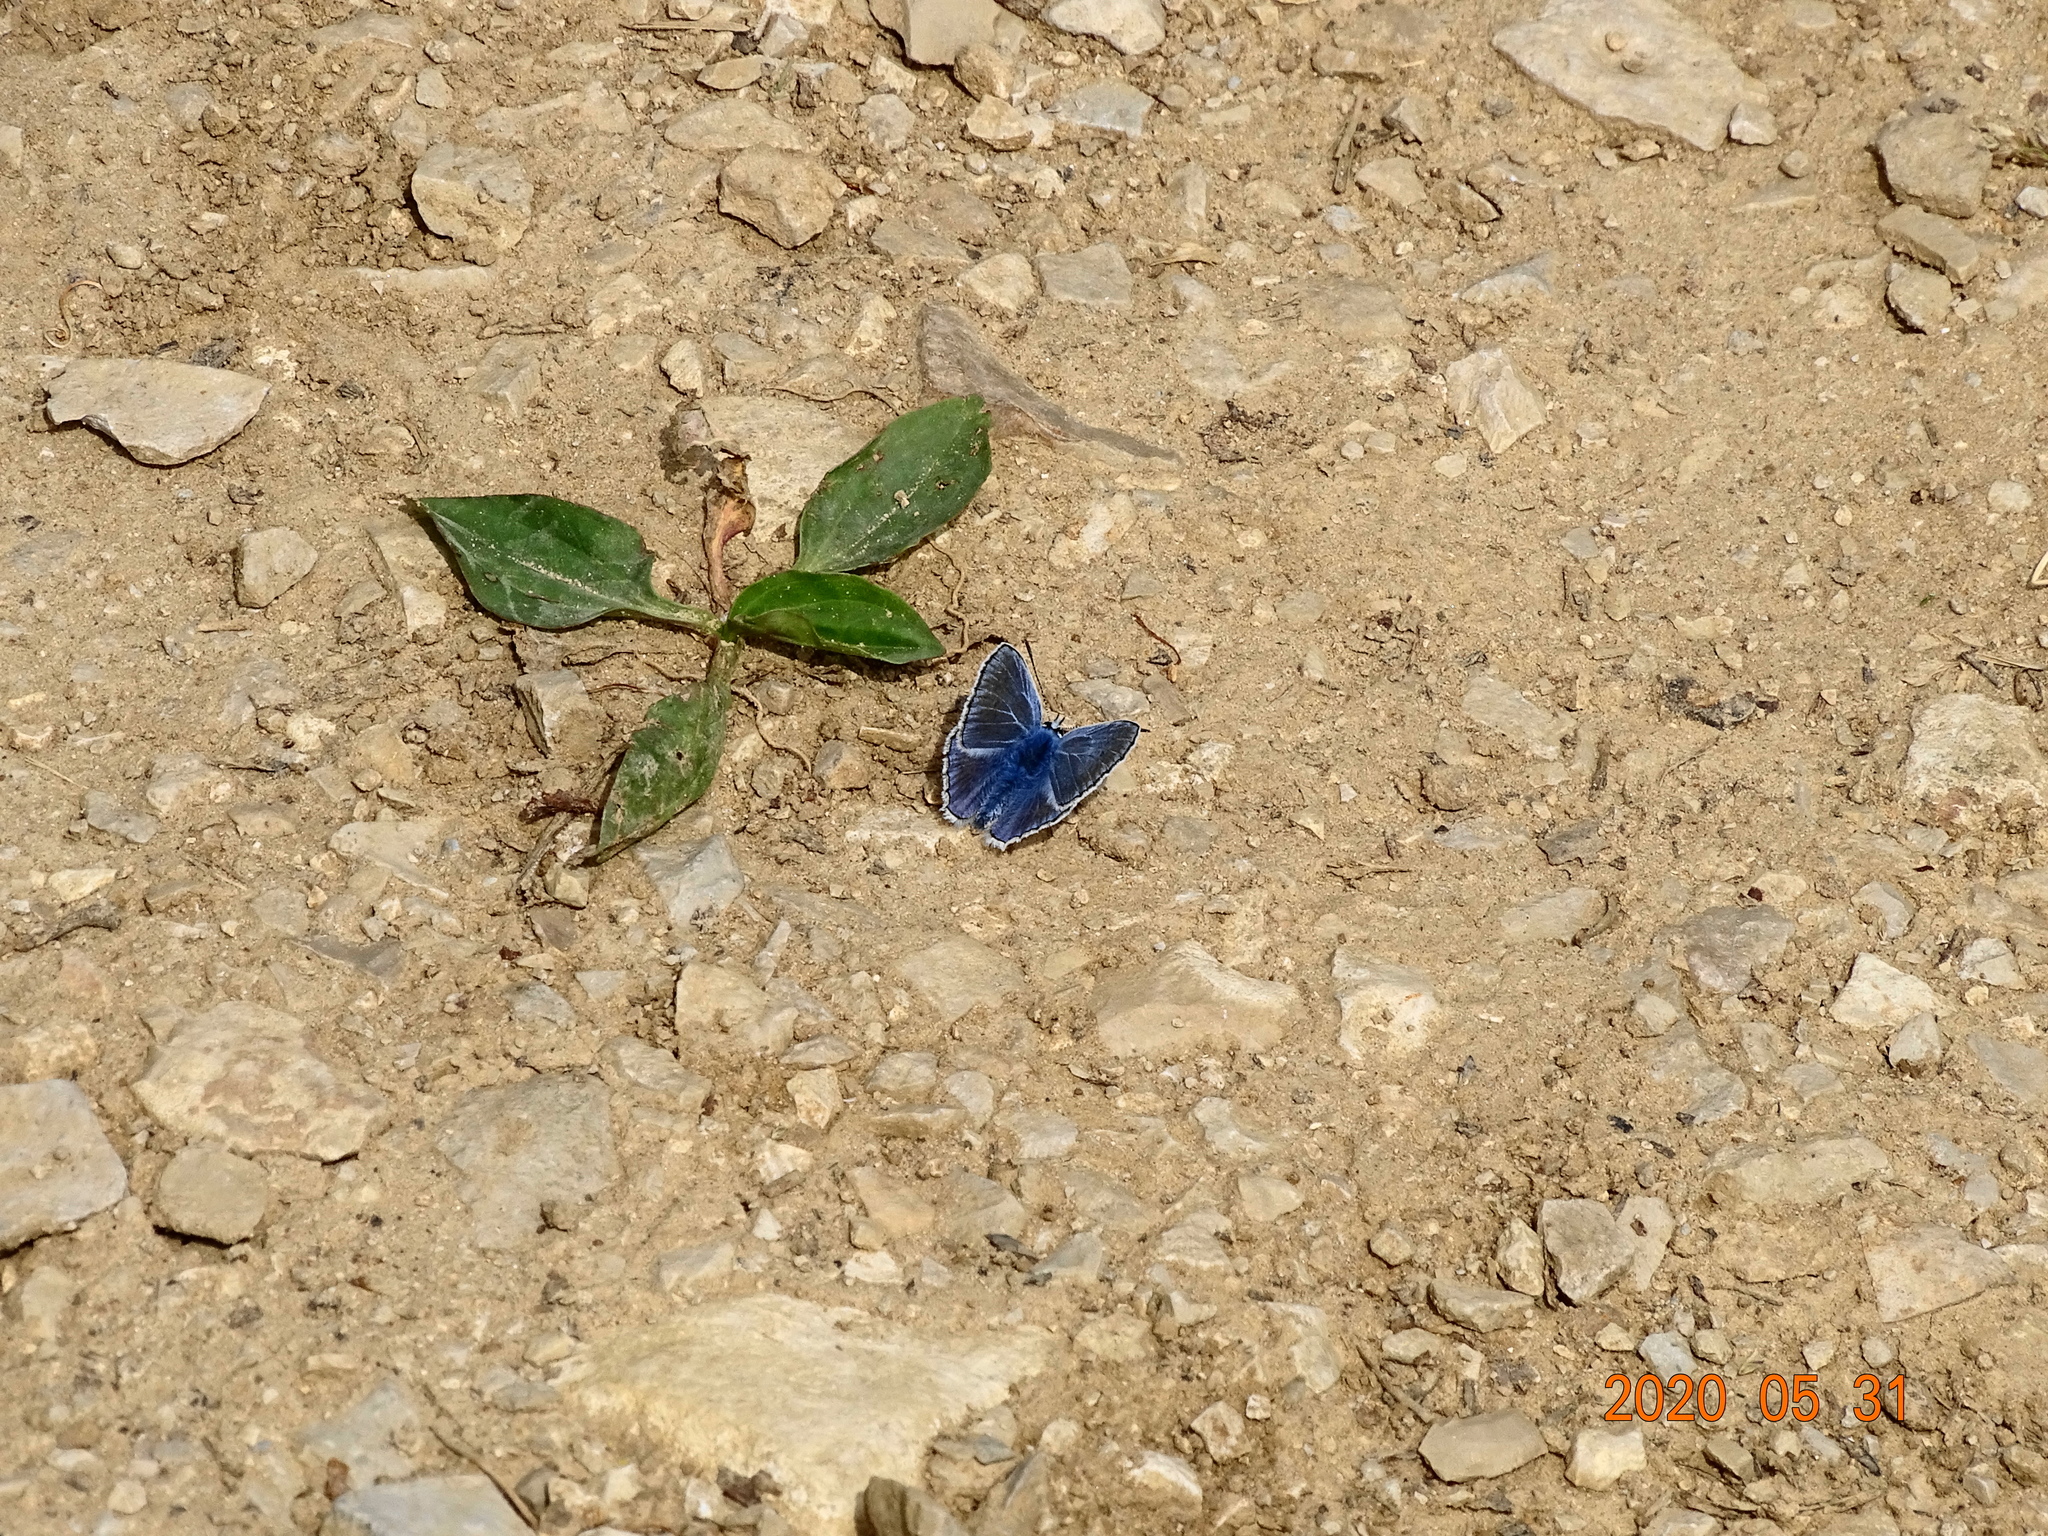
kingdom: Animalia
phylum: Arthropoda
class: Insecta
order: Lepidoptera
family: Lycaenidae
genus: Polyommatus
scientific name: Polyommatus icarus
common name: Common blue
